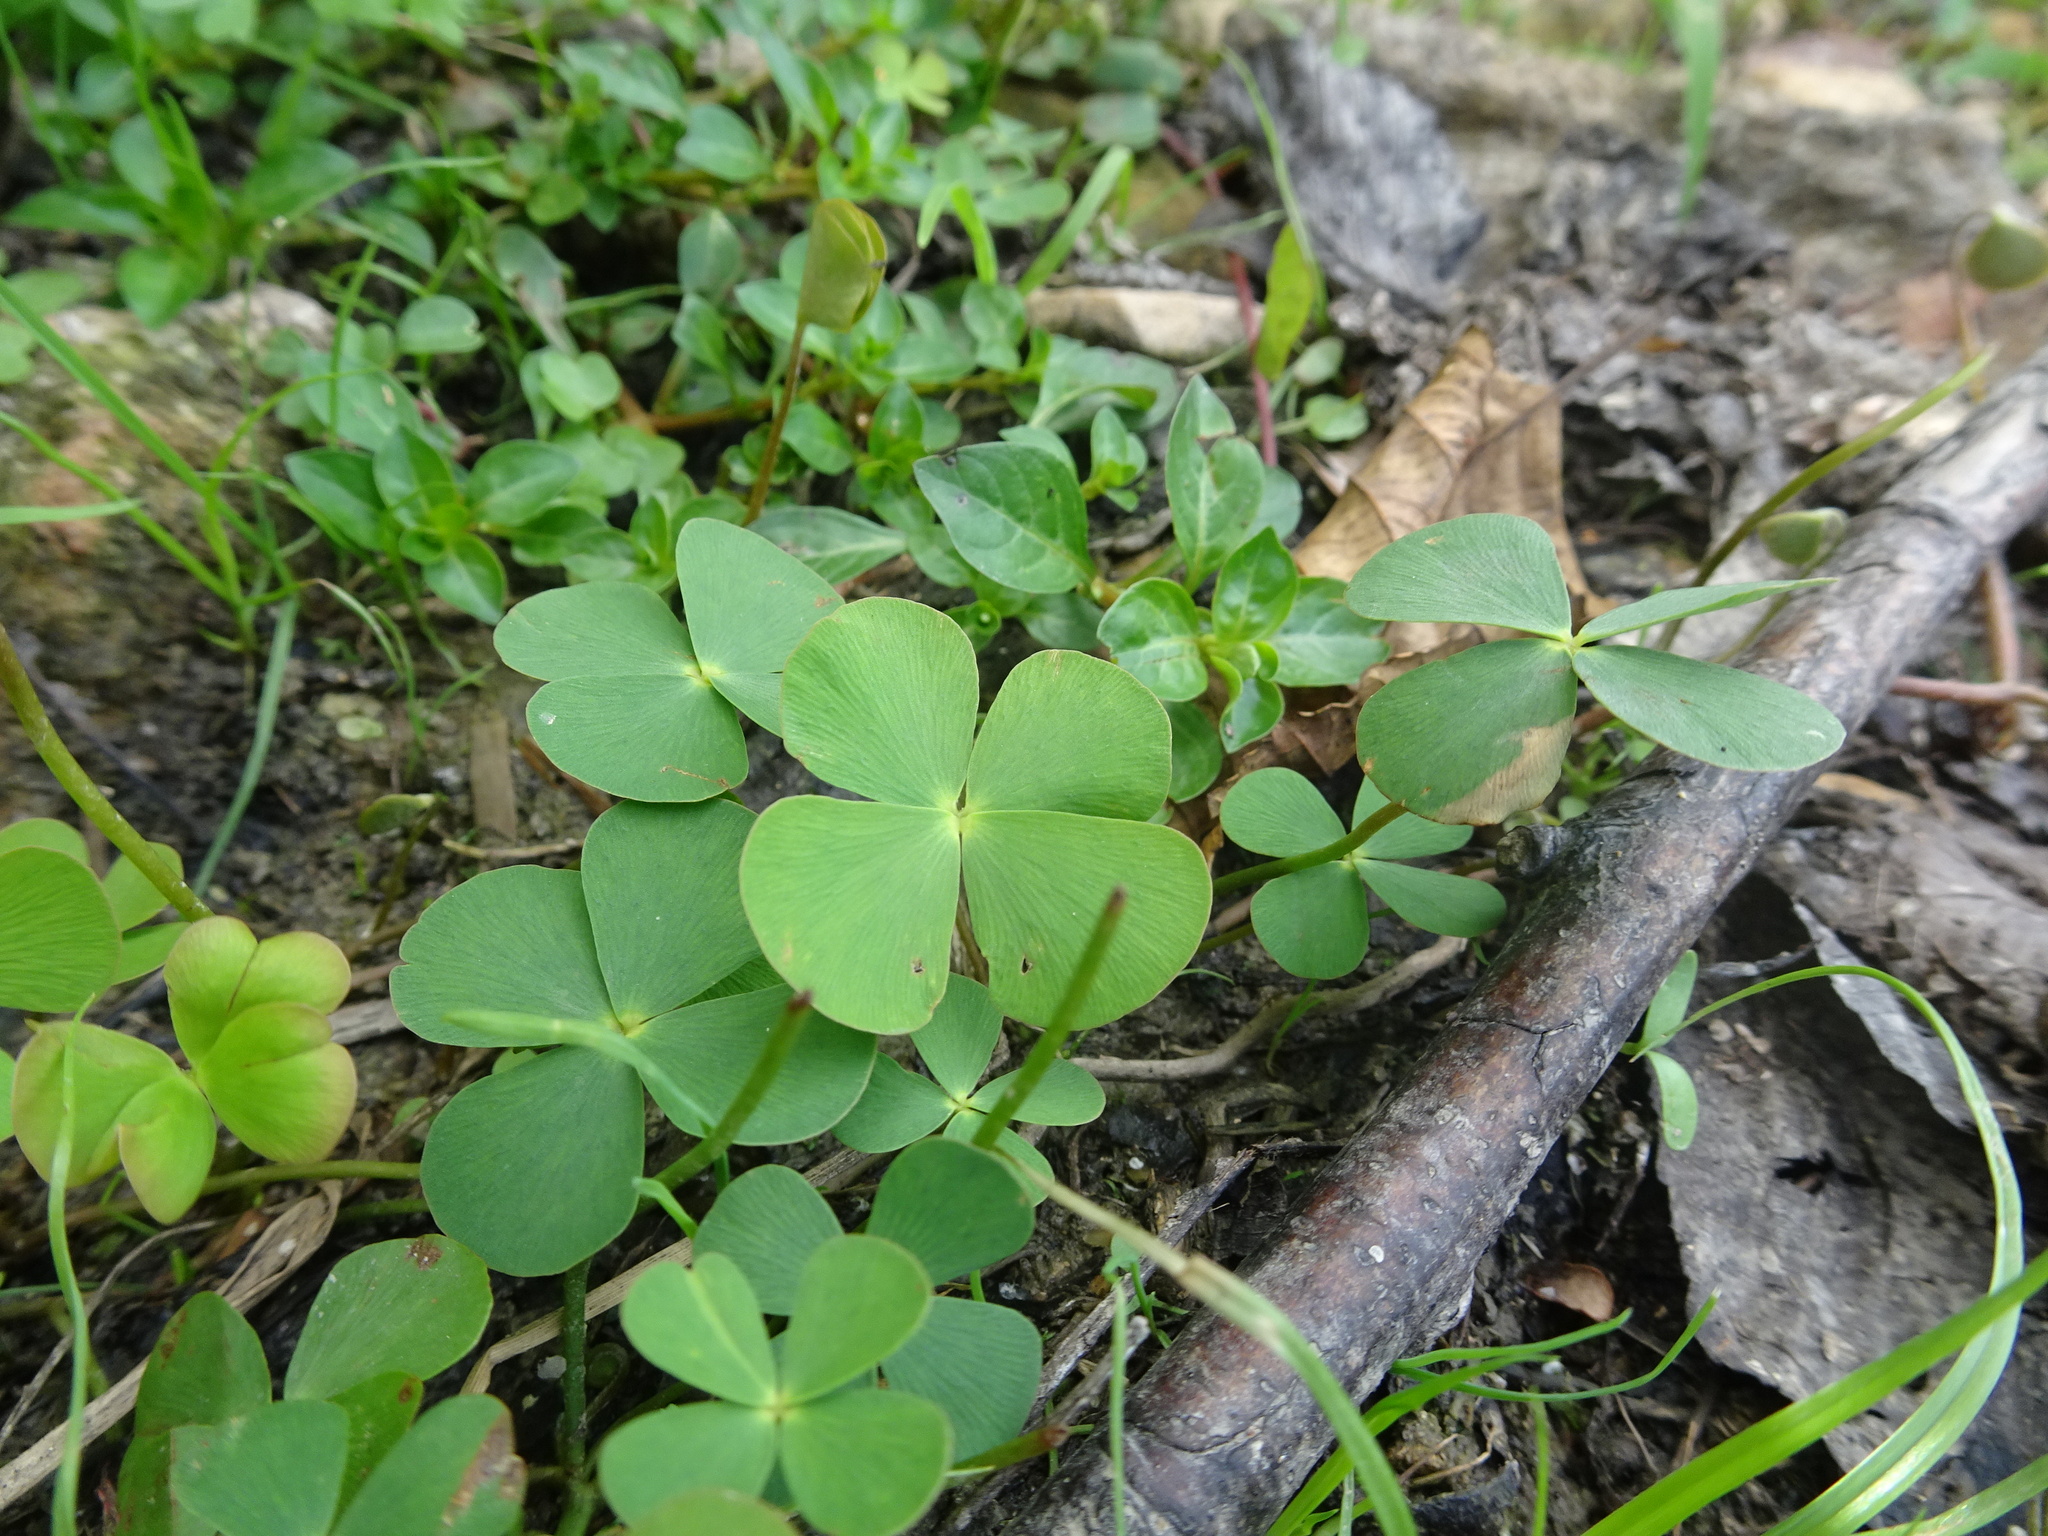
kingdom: Plantae
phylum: Tracheophyta
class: Polypodiopsida
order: Salviniales
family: Marsileaceae
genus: Marsilea
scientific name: Marsilea quadrifolia
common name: Water shamrock
